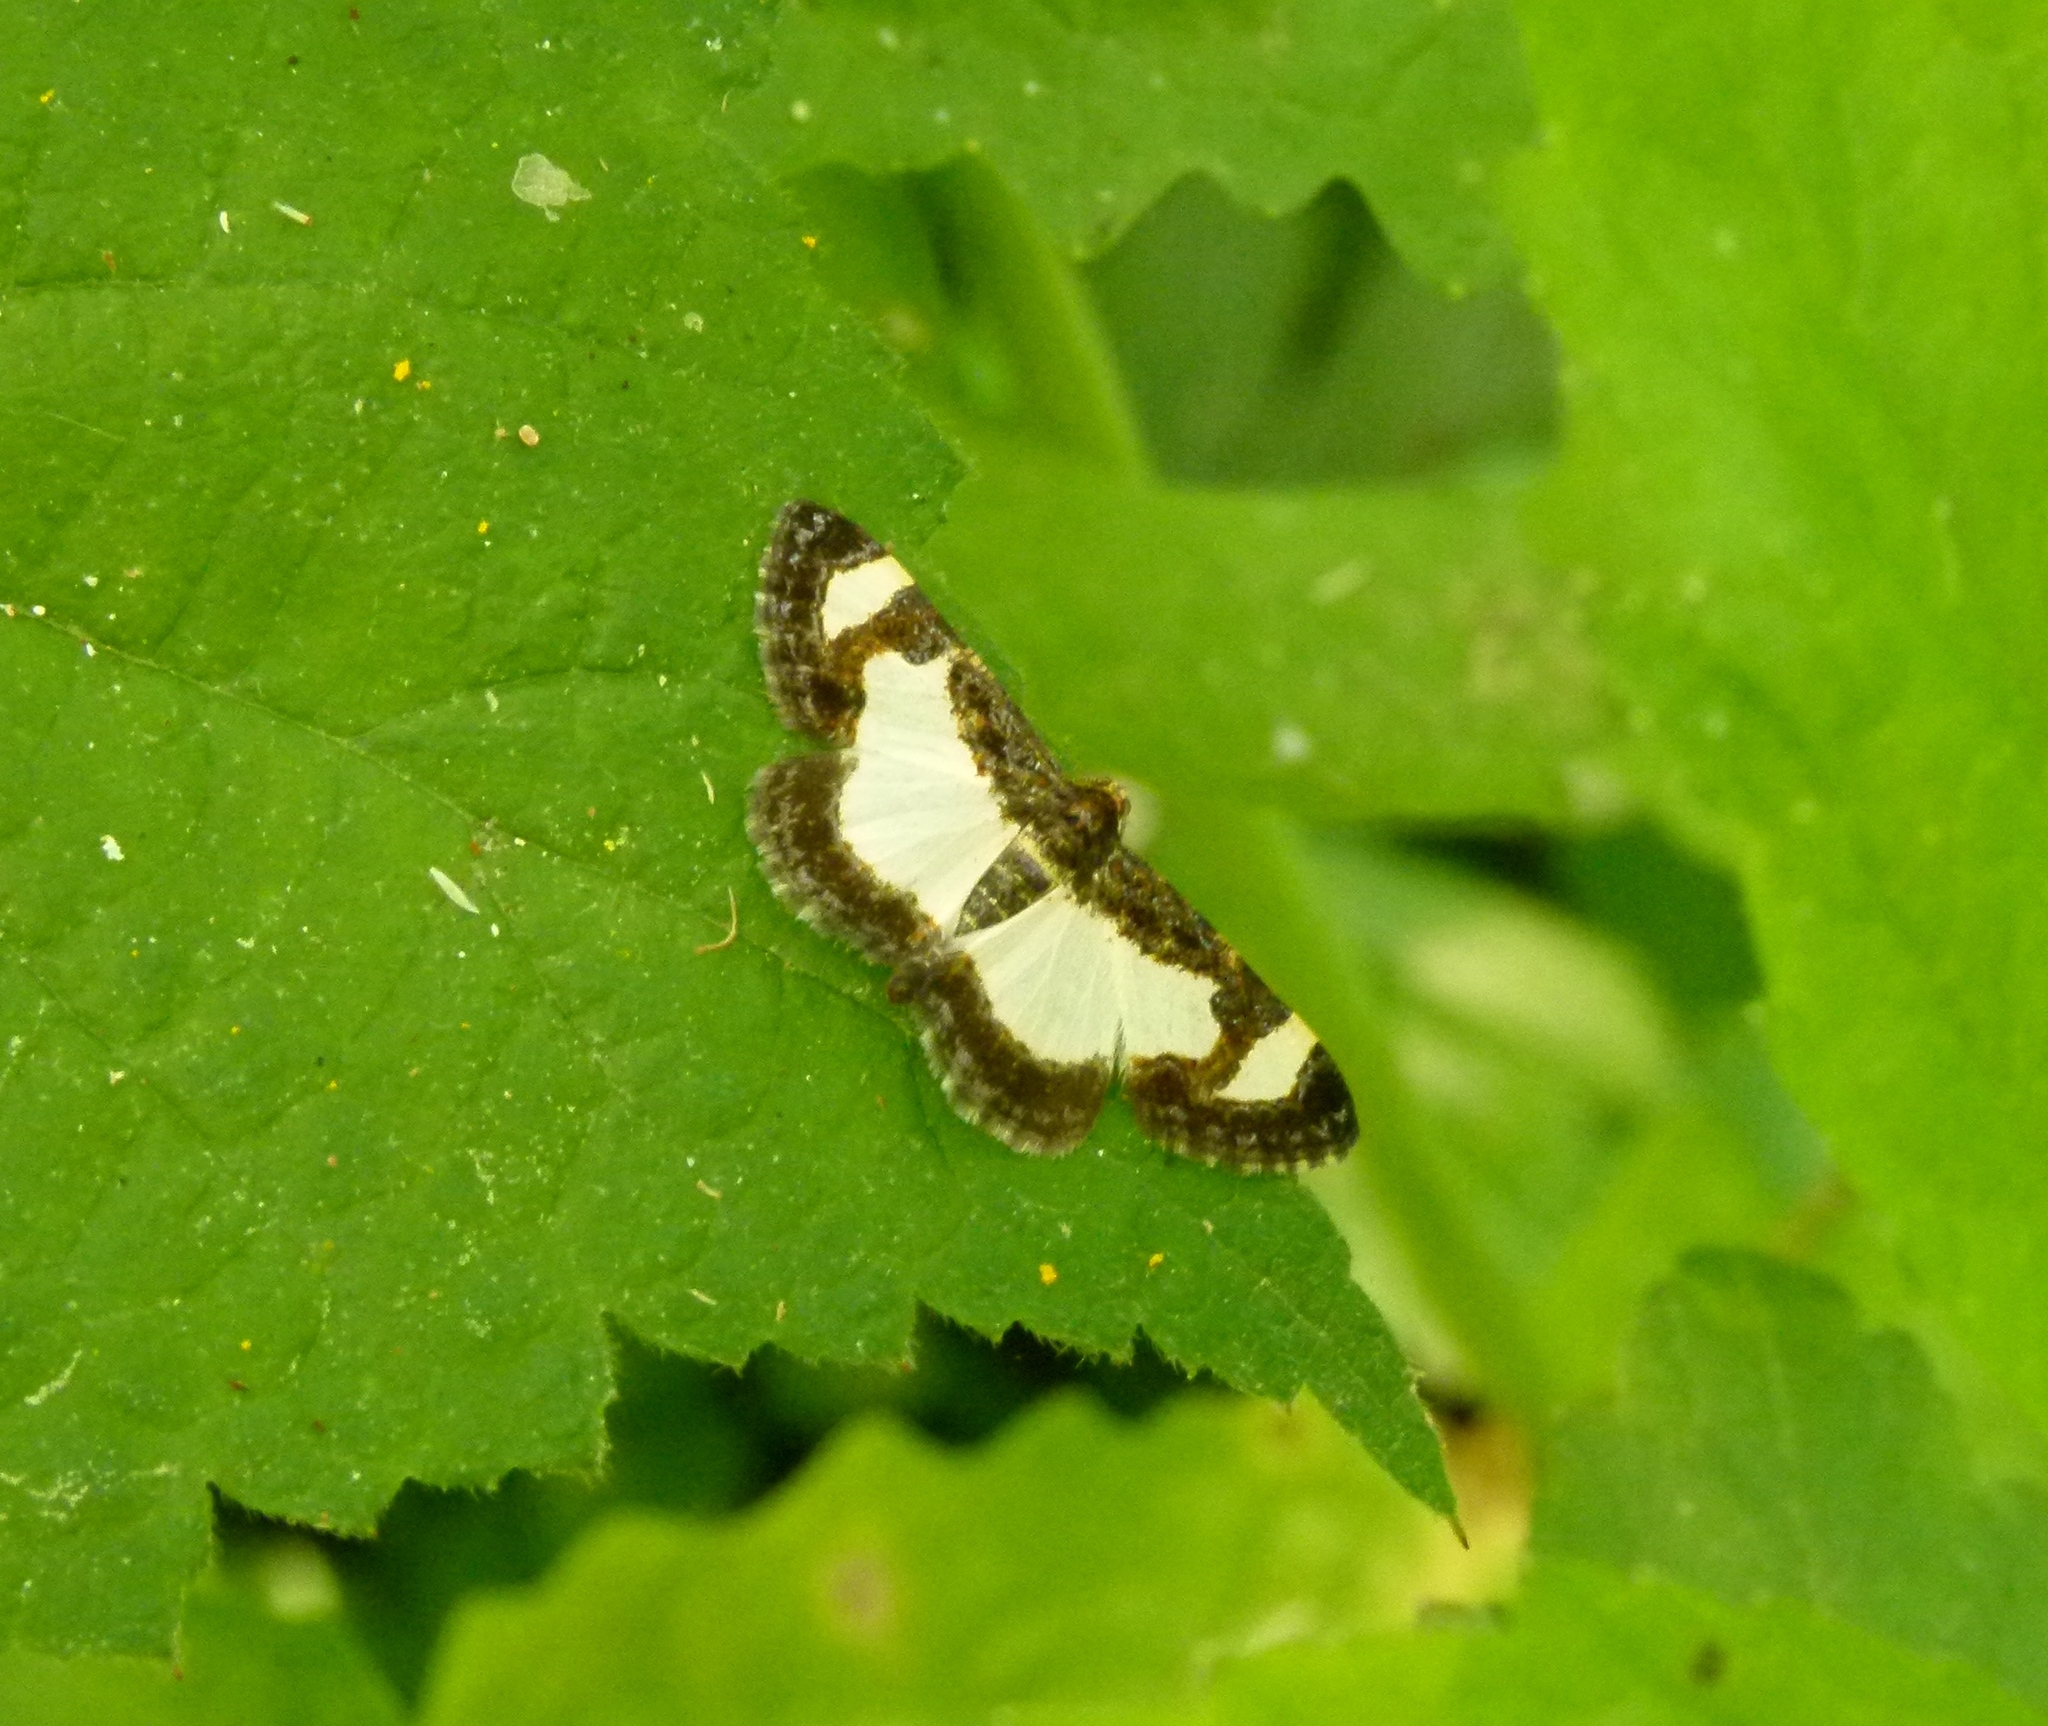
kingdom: Animalia
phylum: Arthropoda
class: Insecta
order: Lepidoptera
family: Geometridae
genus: Heliomata
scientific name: Heliomata cycladata
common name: Common spring moth
